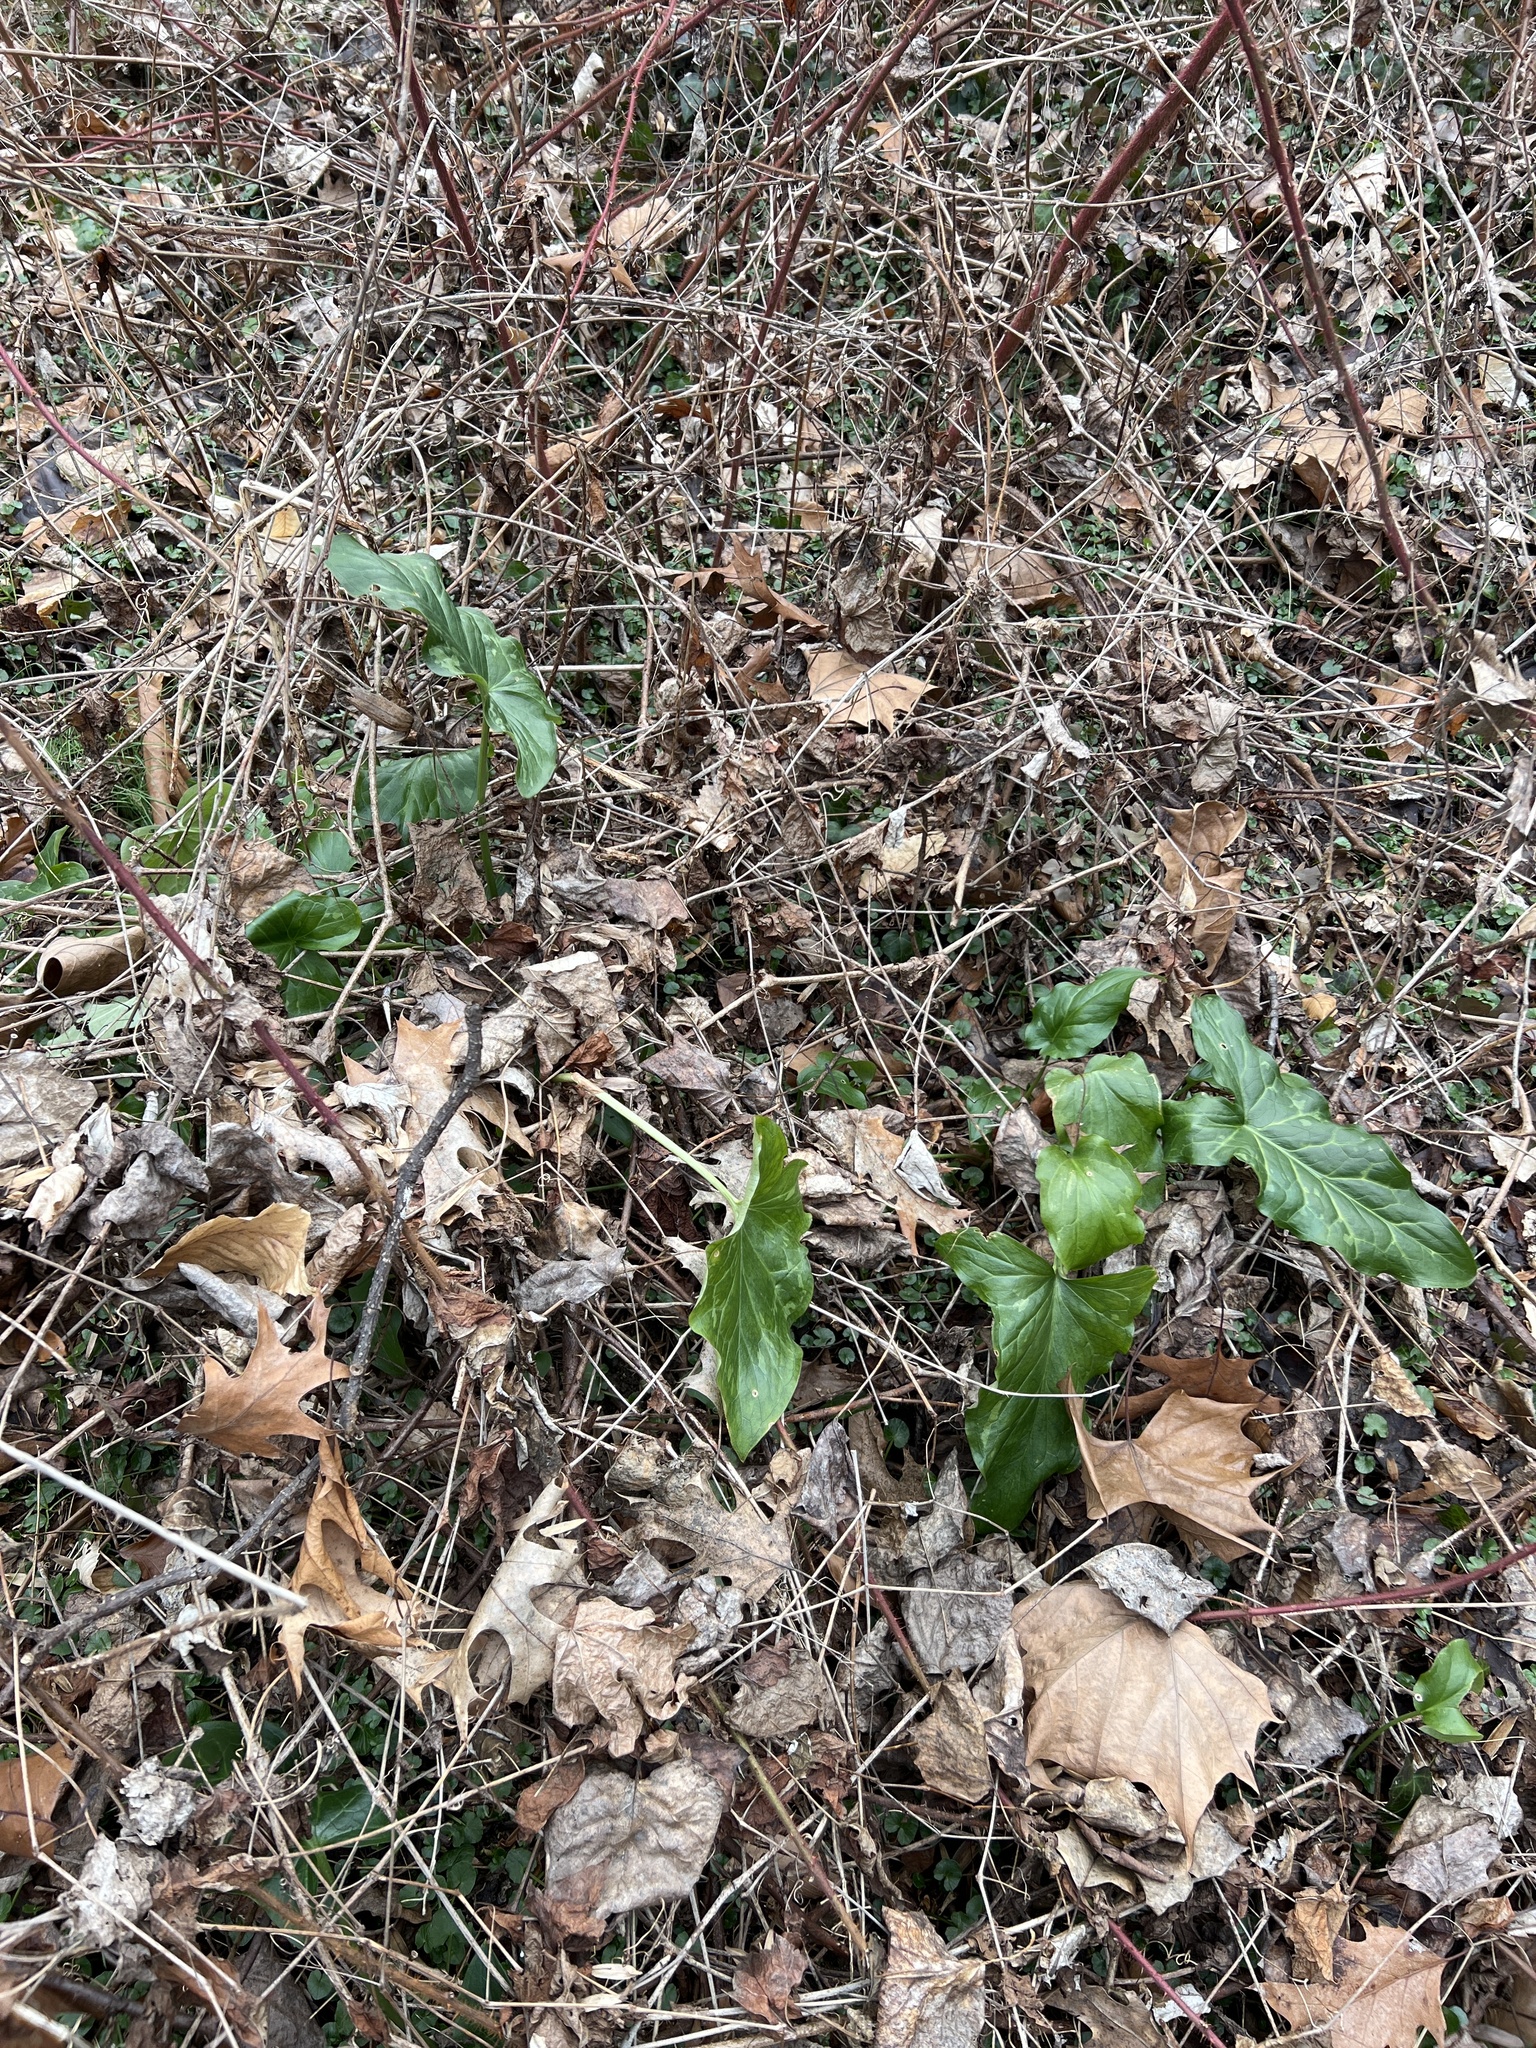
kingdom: Plantae
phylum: Tracheophyta
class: Liliopsida
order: Alismatales
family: Araceae
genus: Arum
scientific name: Arum italicum
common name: Italian lords-and-ladies
